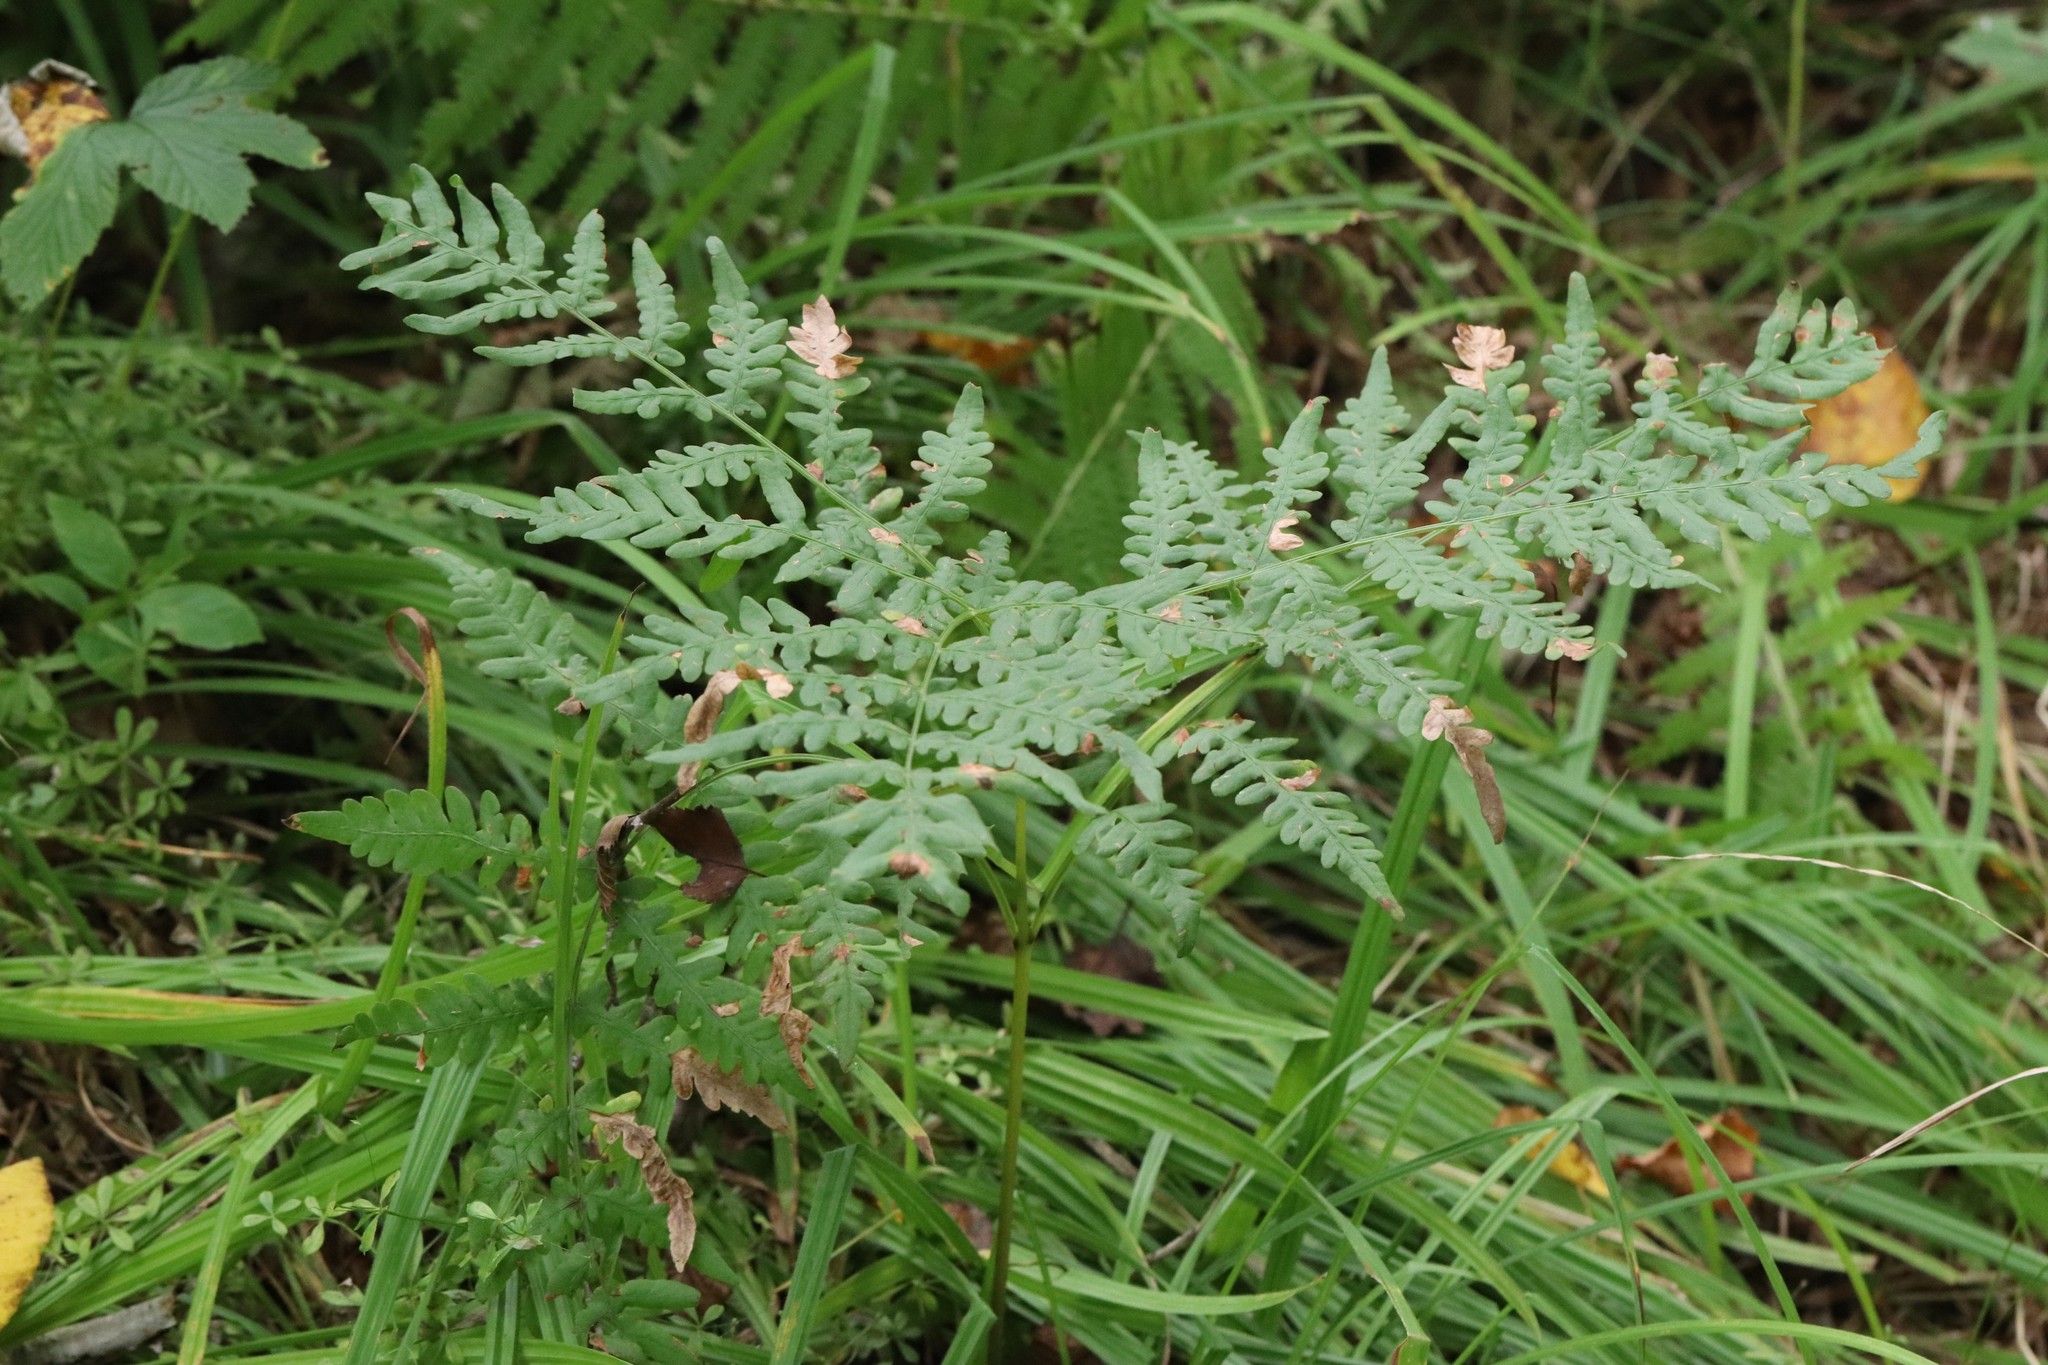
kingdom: Plantae
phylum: Tracheophyta
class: Polypodiopsida
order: Polypodiales
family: Dennstaedtiaceae
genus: Pteridium
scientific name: Pteridium aquilinum
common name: Bracken
